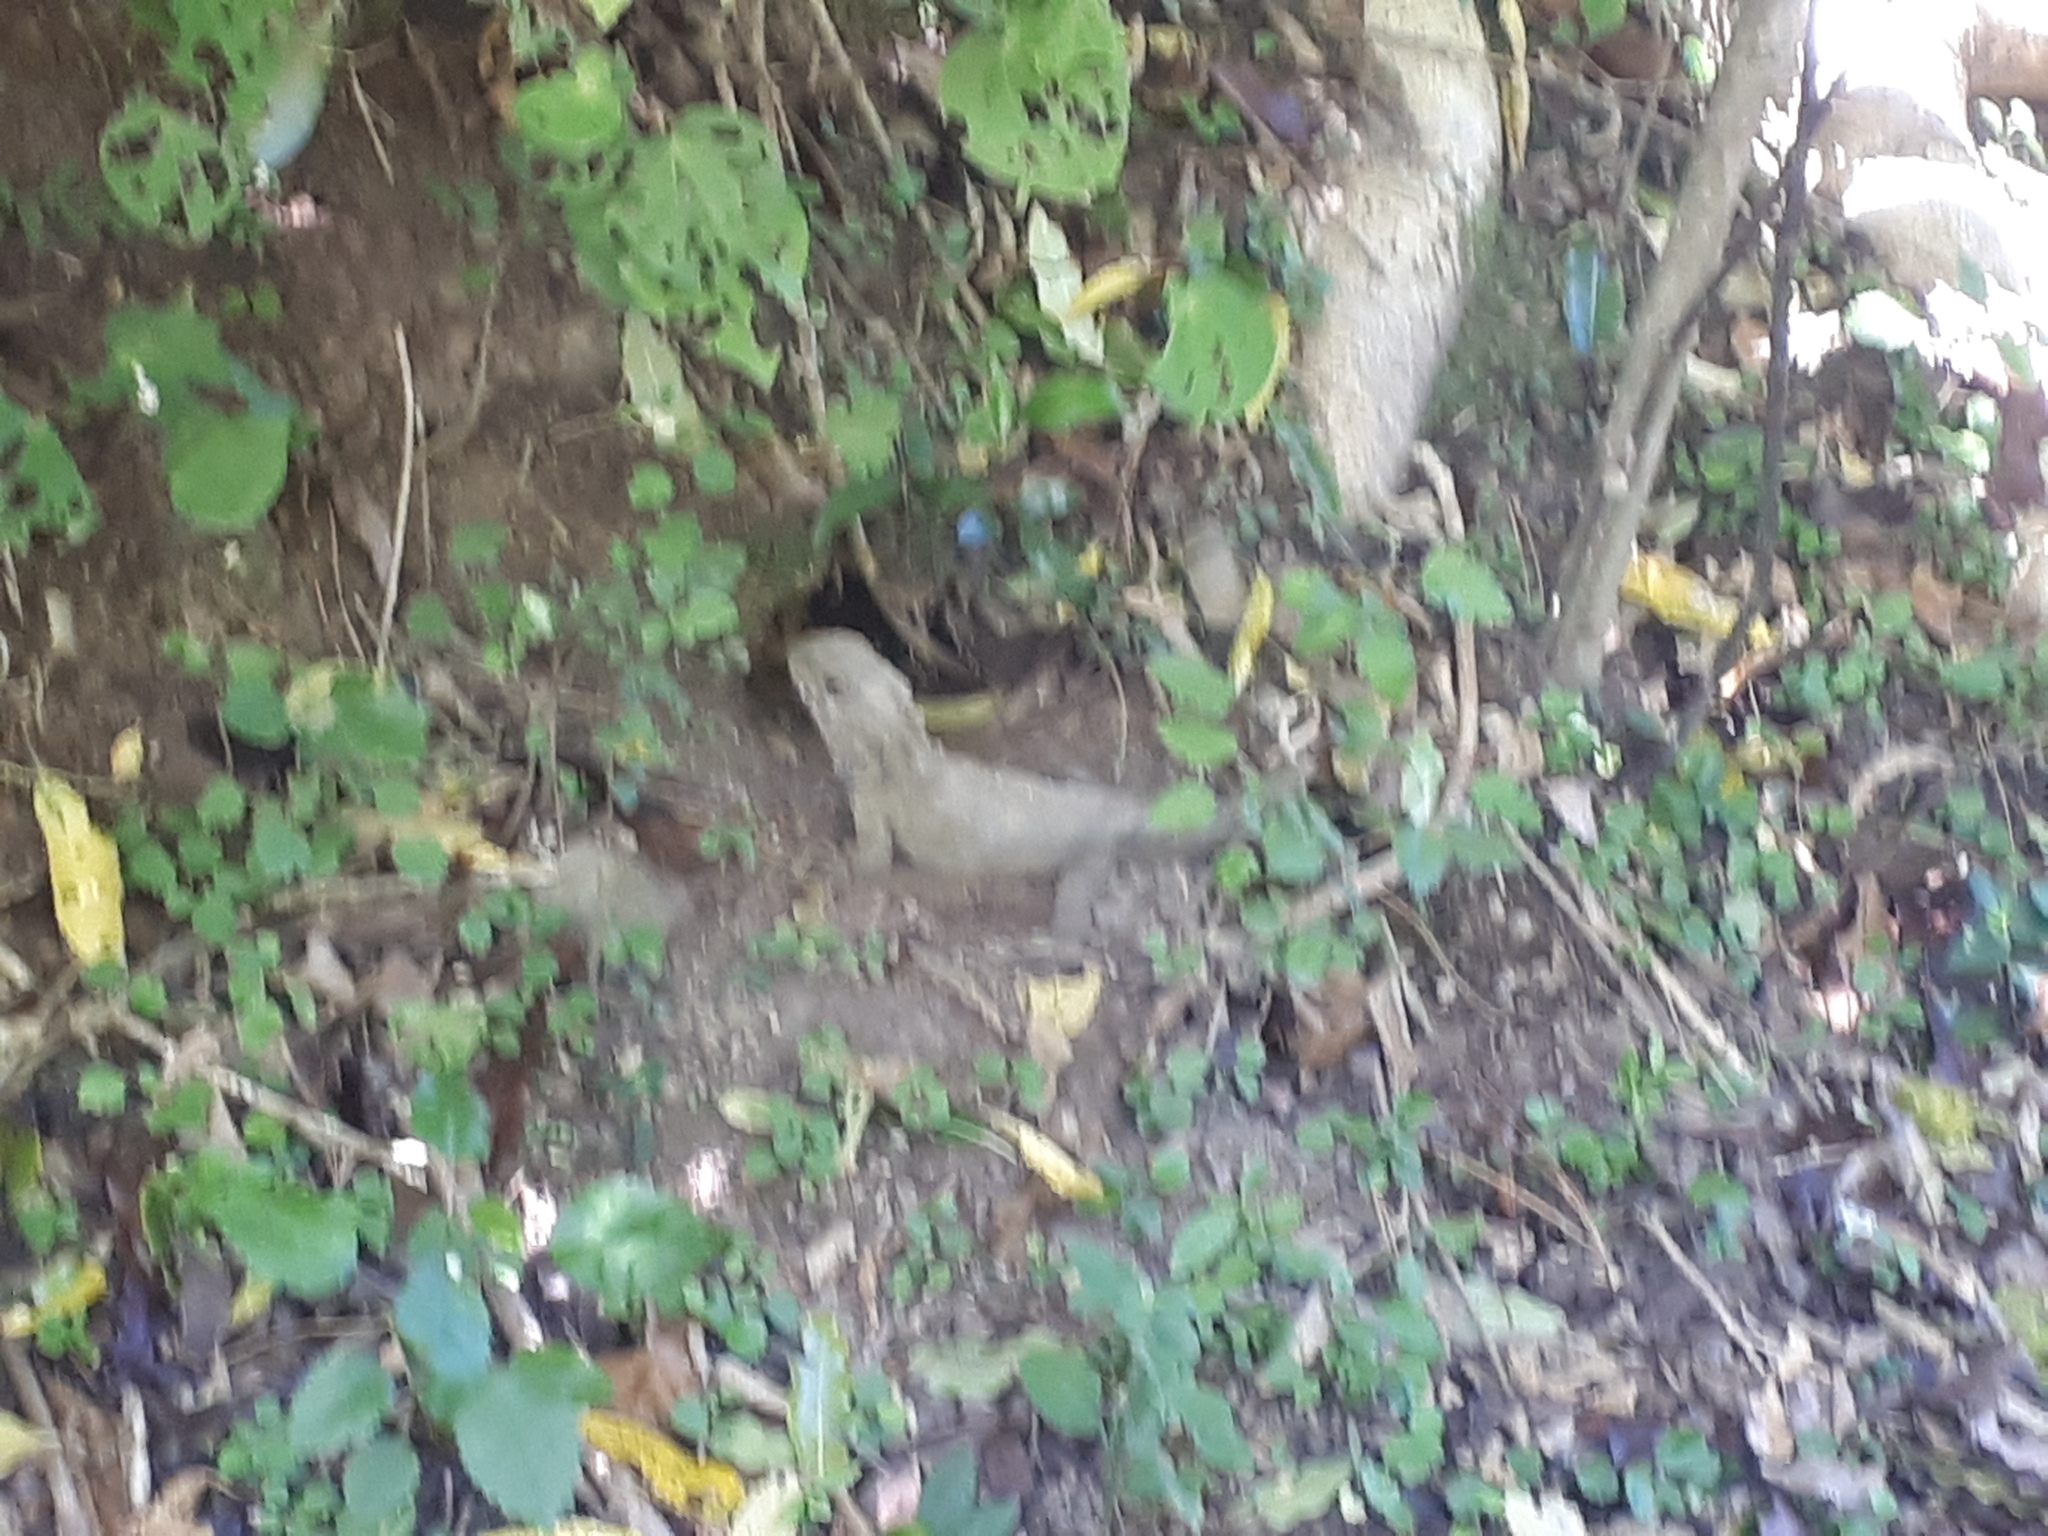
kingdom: Animalia
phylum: Chordata
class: Sphenodontia
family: Sphenodontidae
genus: Sphenodon
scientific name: Sphenodon punctatus
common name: Tuatara
